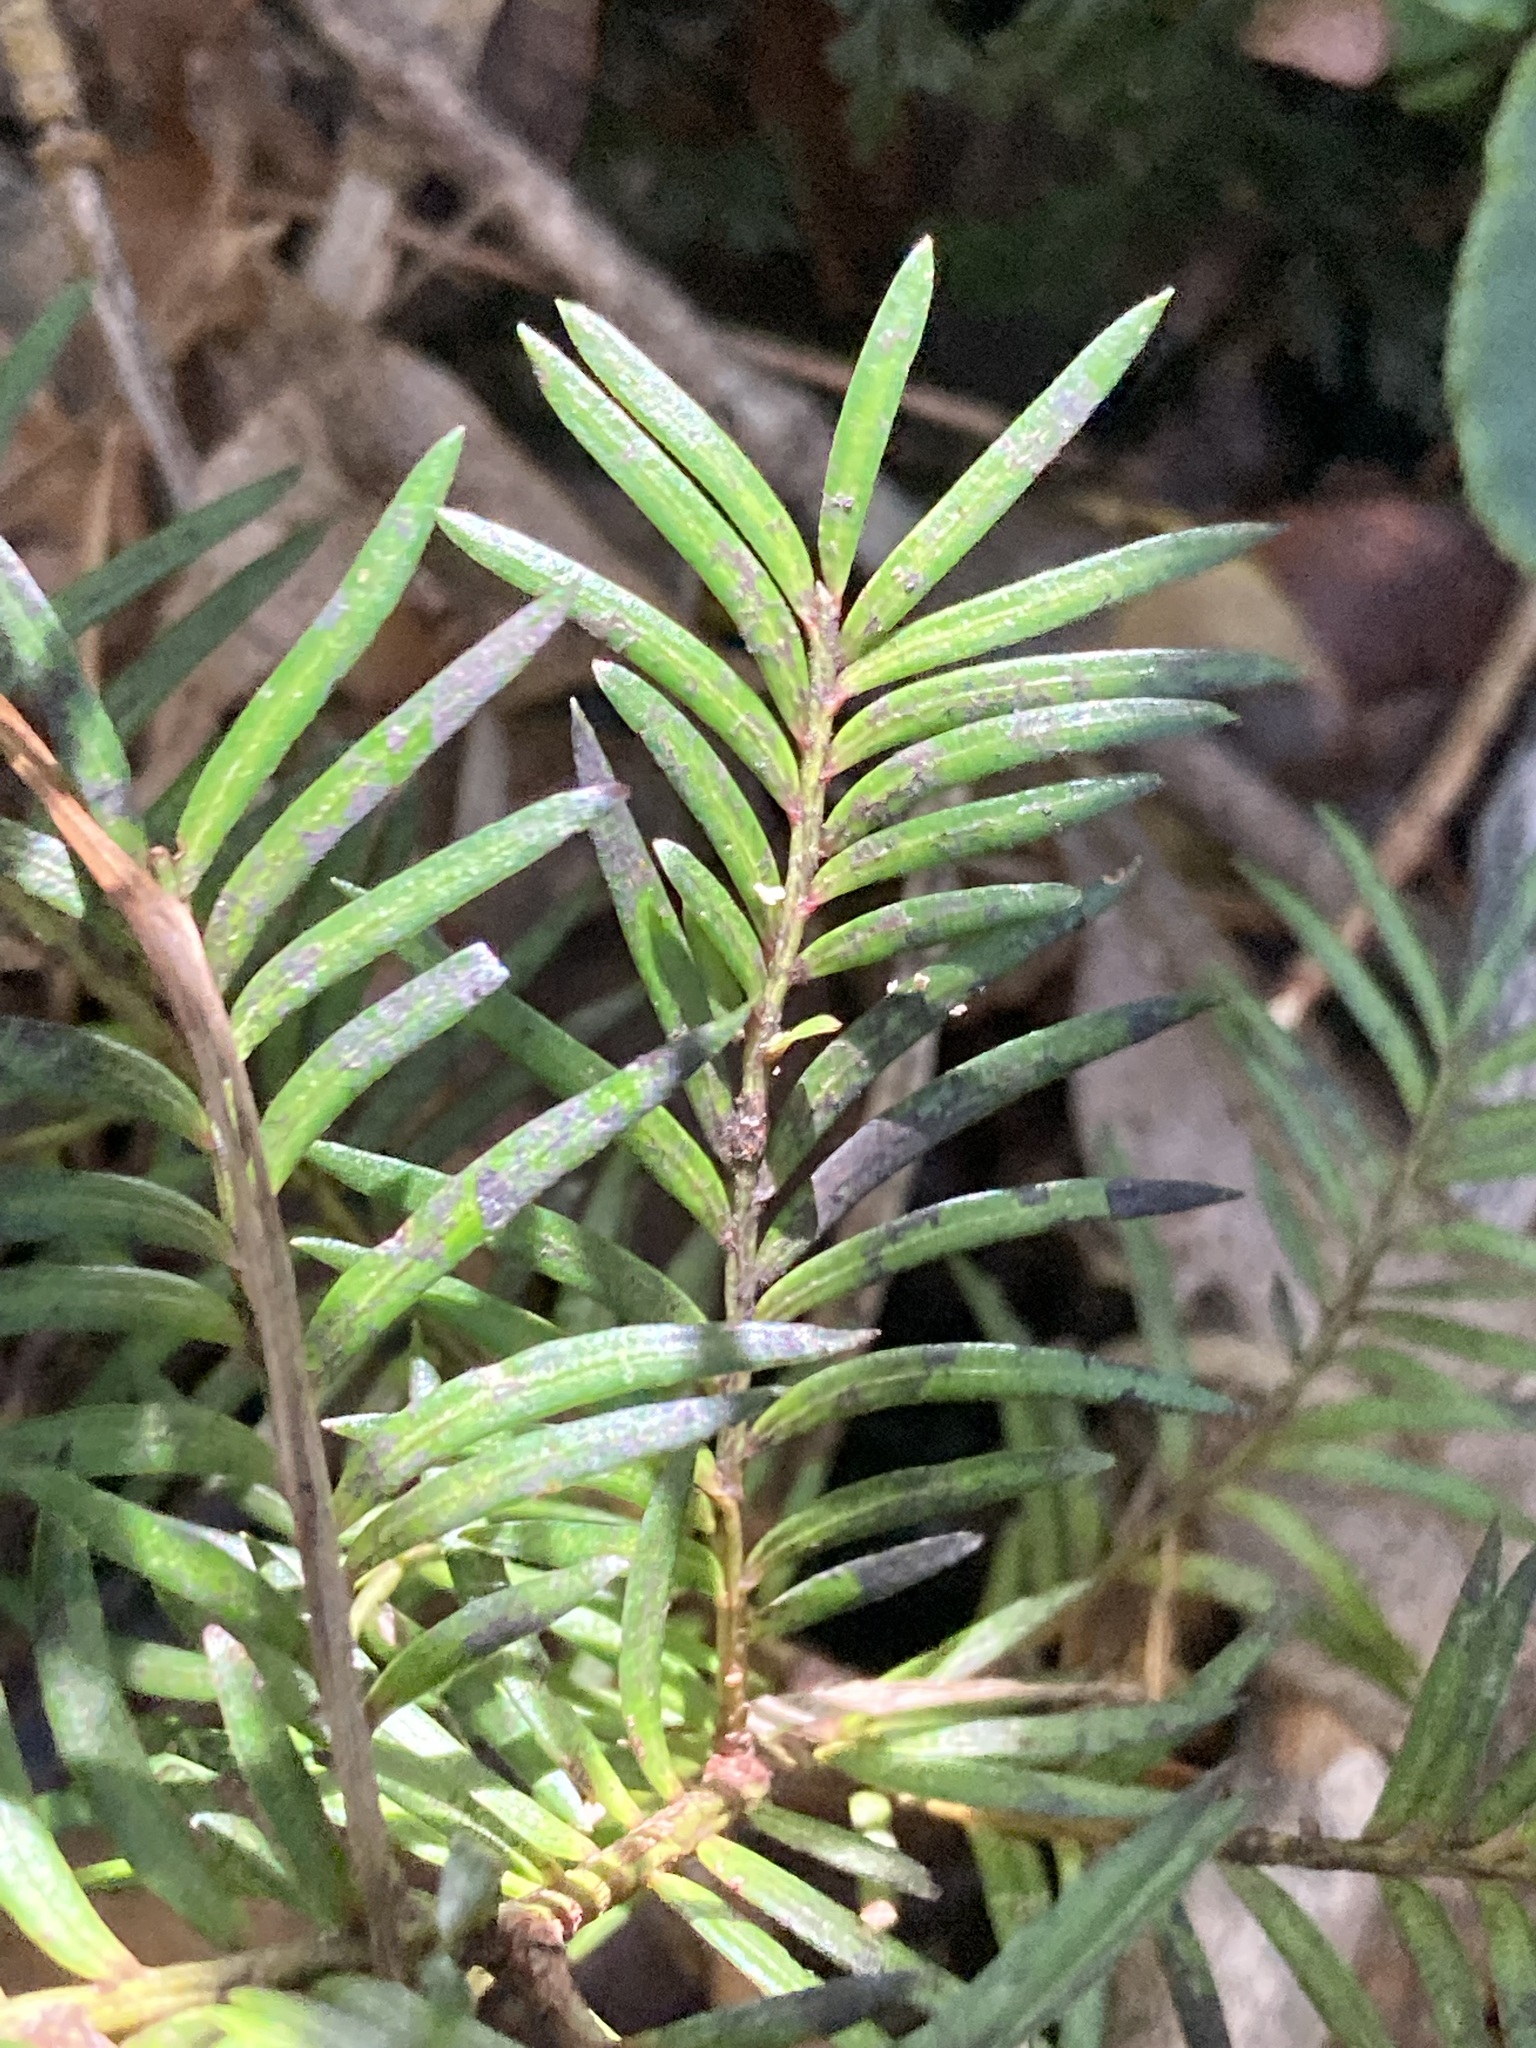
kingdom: Plantae
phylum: Tracheophyta
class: Pinopsida
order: Pinales
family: Podocarpaceae
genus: Prumnopitys
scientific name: Prumnopitys ferruginea
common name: Brown pine
